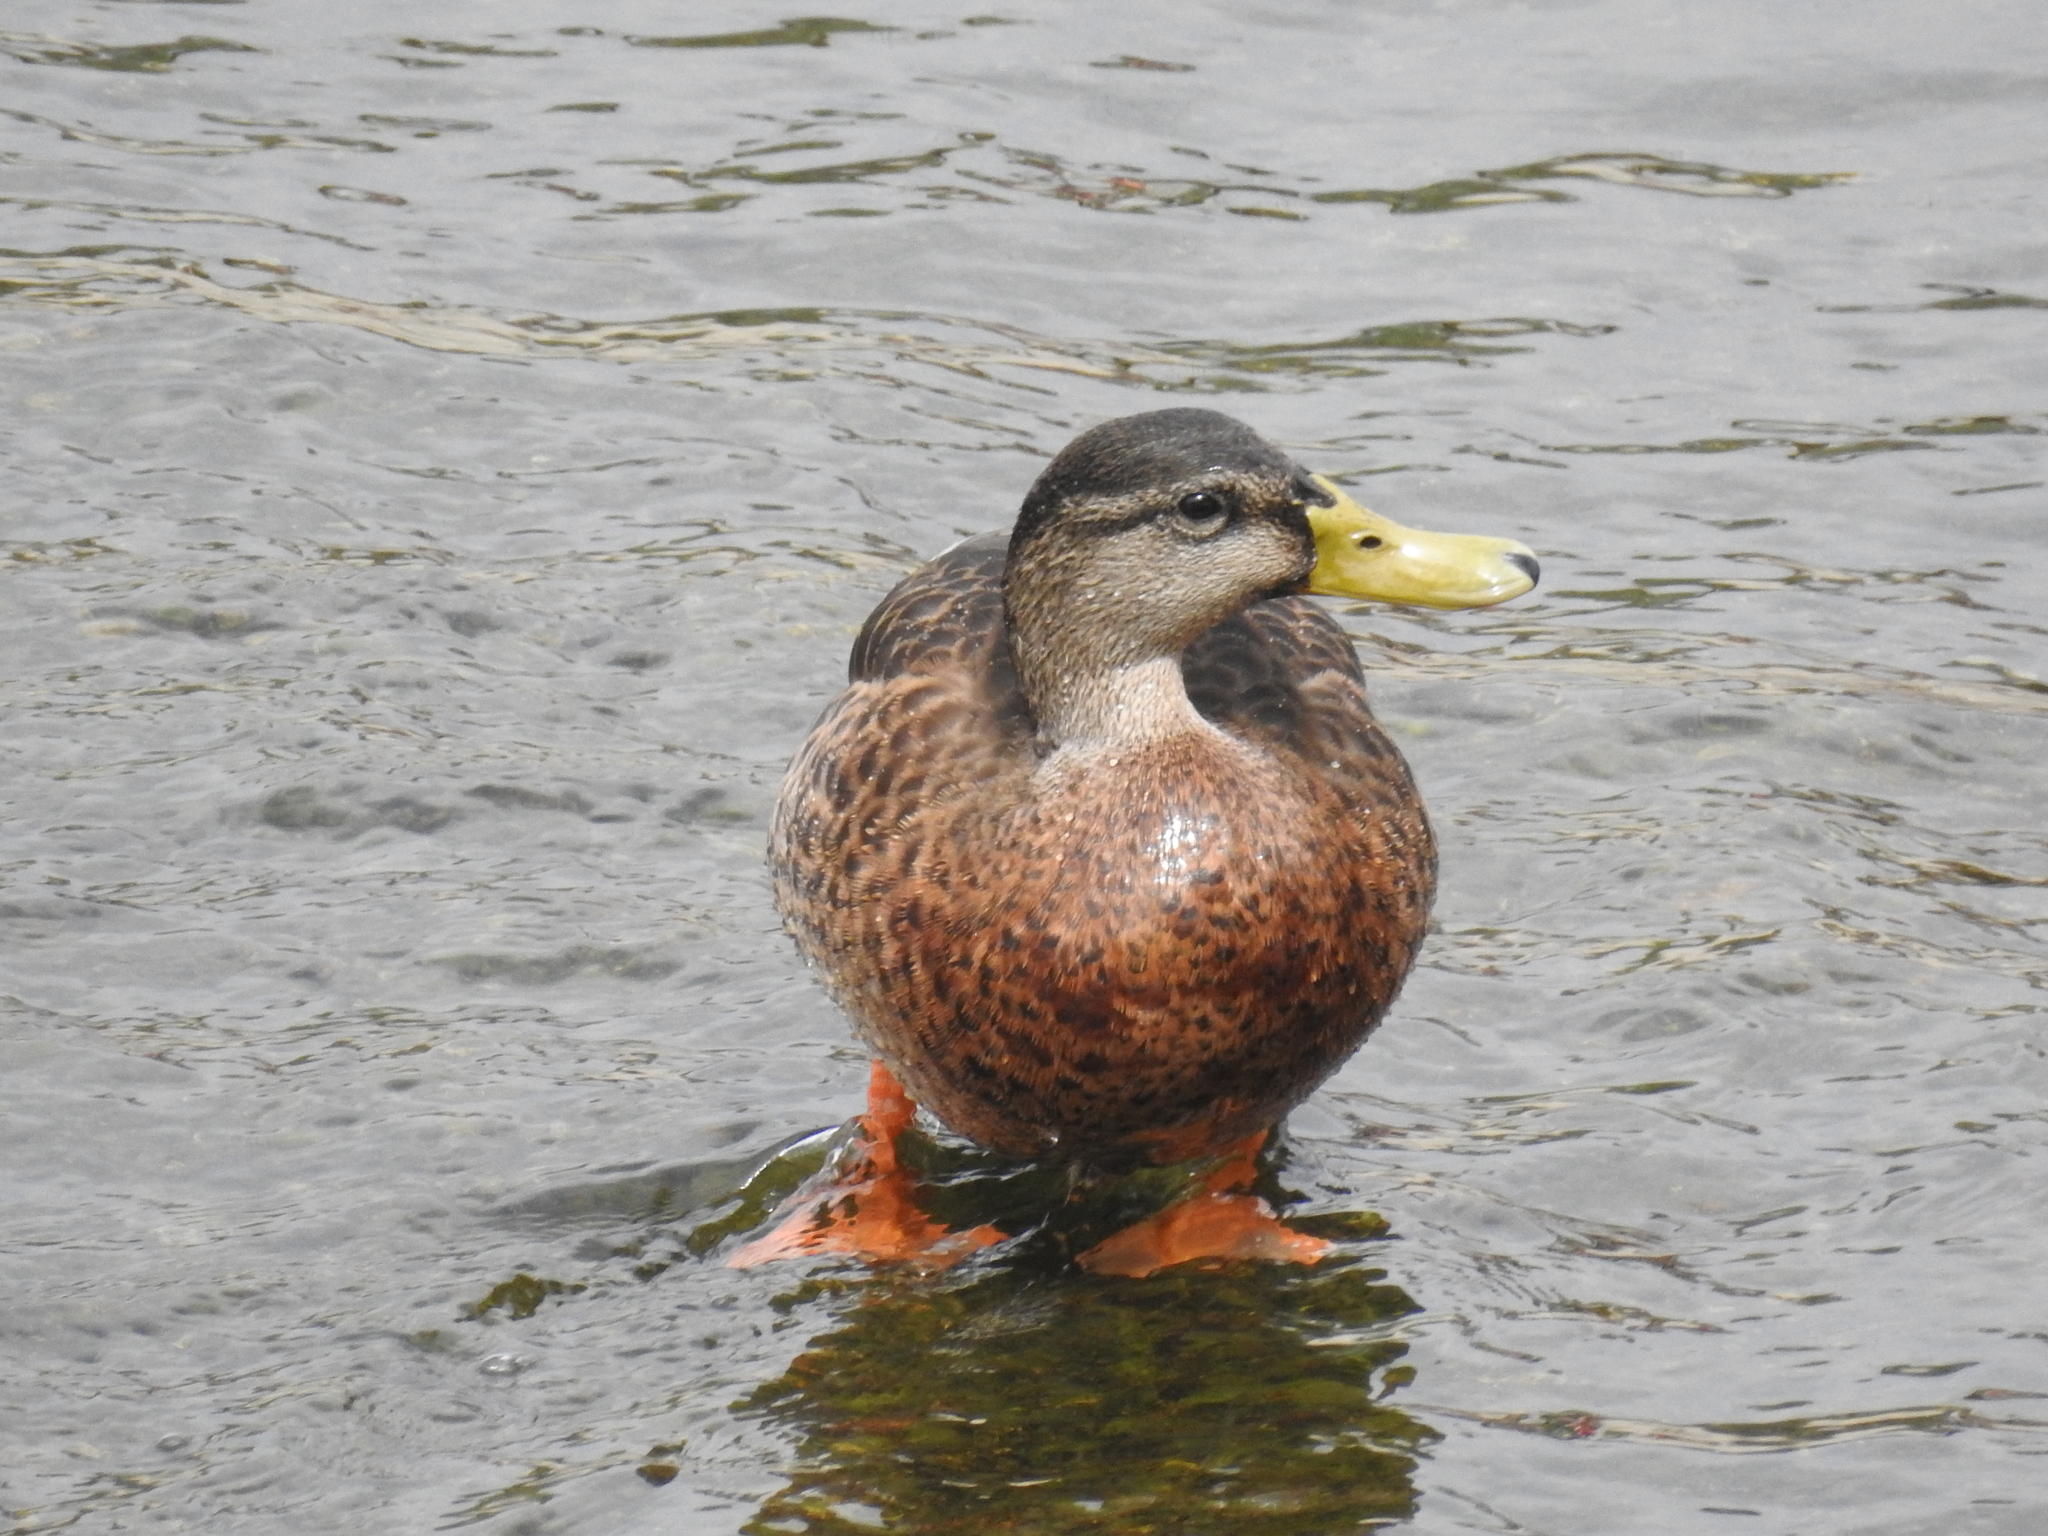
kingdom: Animalia
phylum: Chordata
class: Aves
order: Anseriformes
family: Anatidae
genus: Anas
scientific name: Anas platyrhynchos
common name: Mallard
